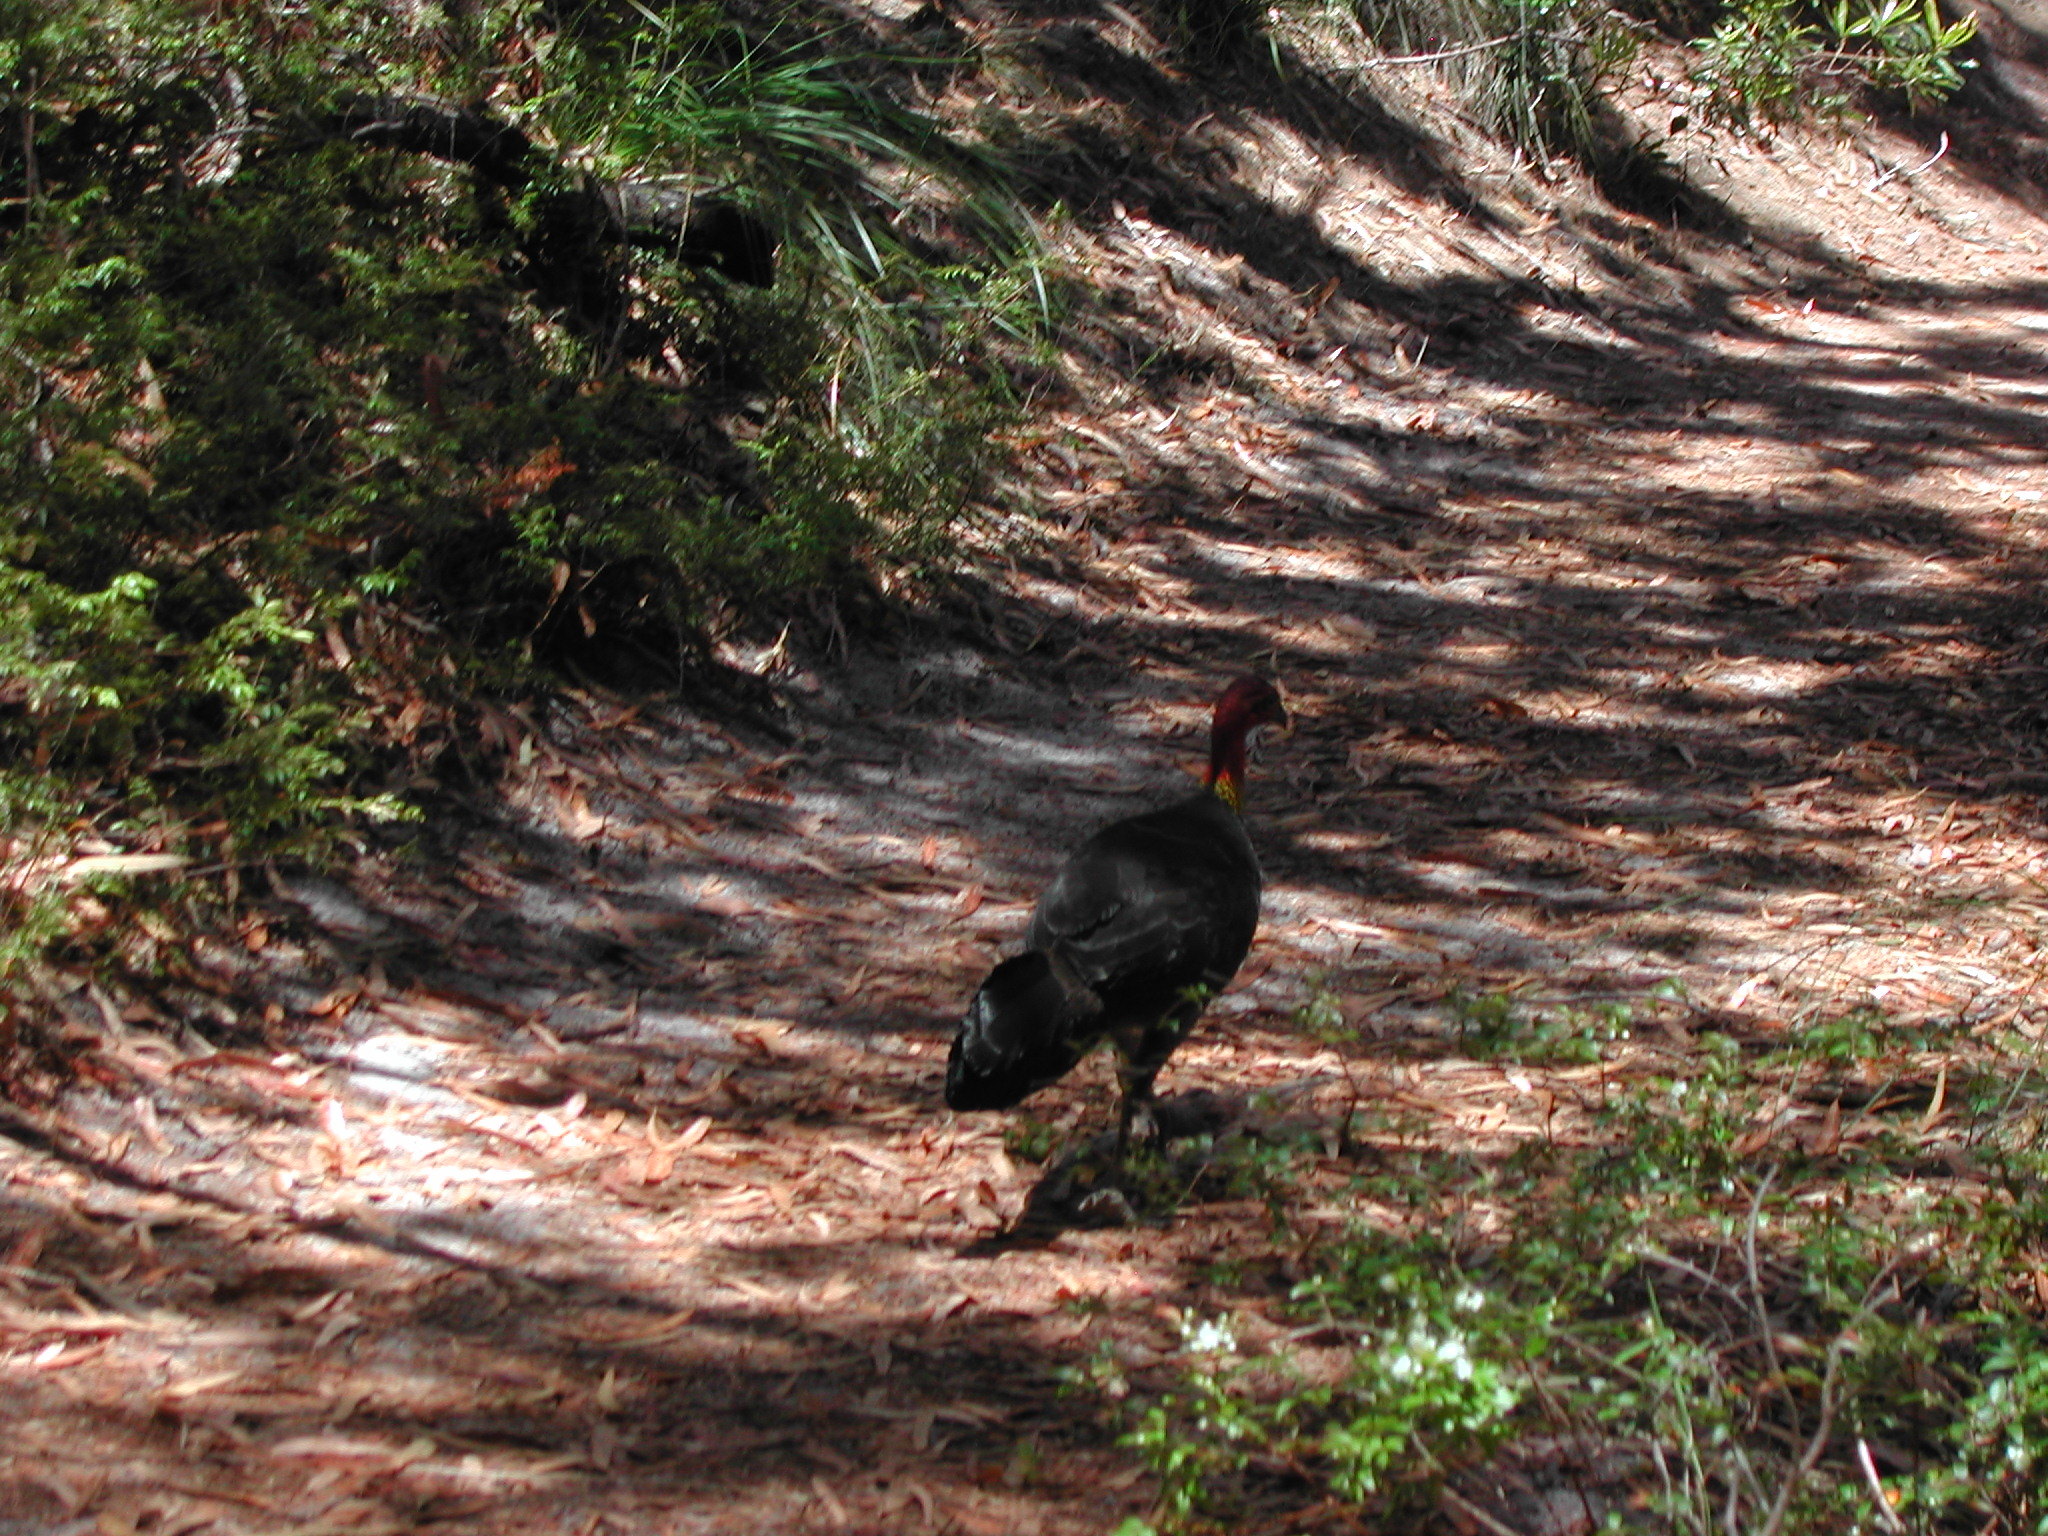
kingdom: Animalia
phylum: Chordata
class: Aves
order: Galliformes
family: Megapodiidae
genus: Alectura
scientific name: Alectura lathami
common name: Australian brushturkey
